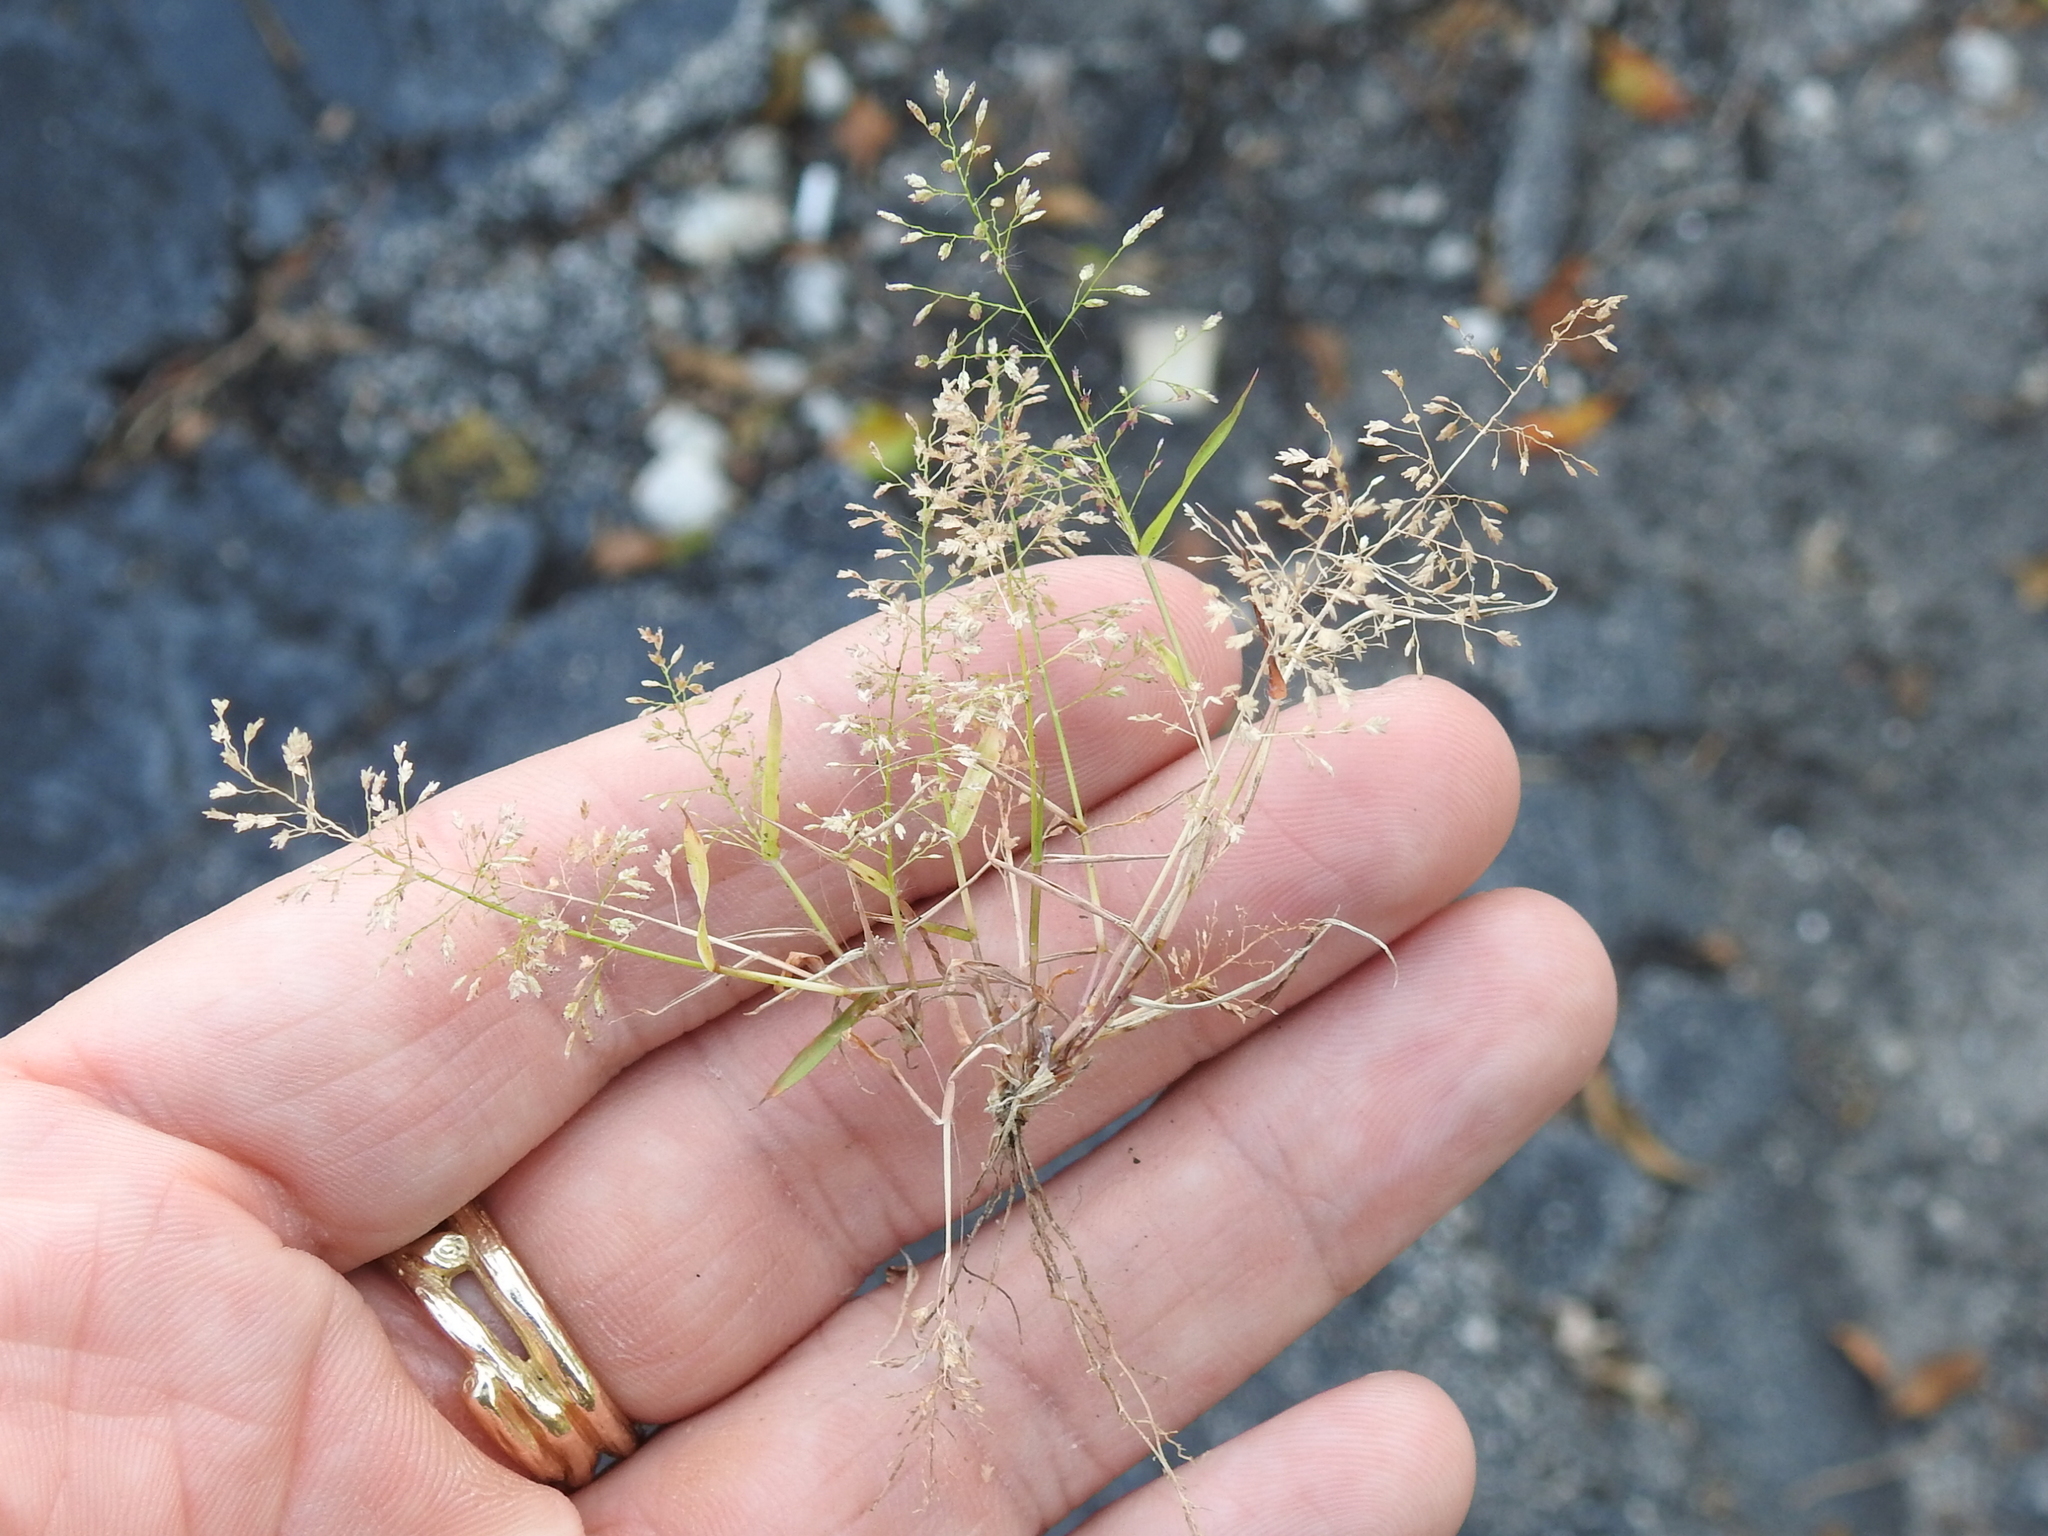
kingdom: Plantae
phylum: Tracheophyta
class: Liliopsida
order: Poales
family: Poaceae
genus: Eragrostis
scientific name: Eragrostis tenella
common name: Japanese lovegrass
